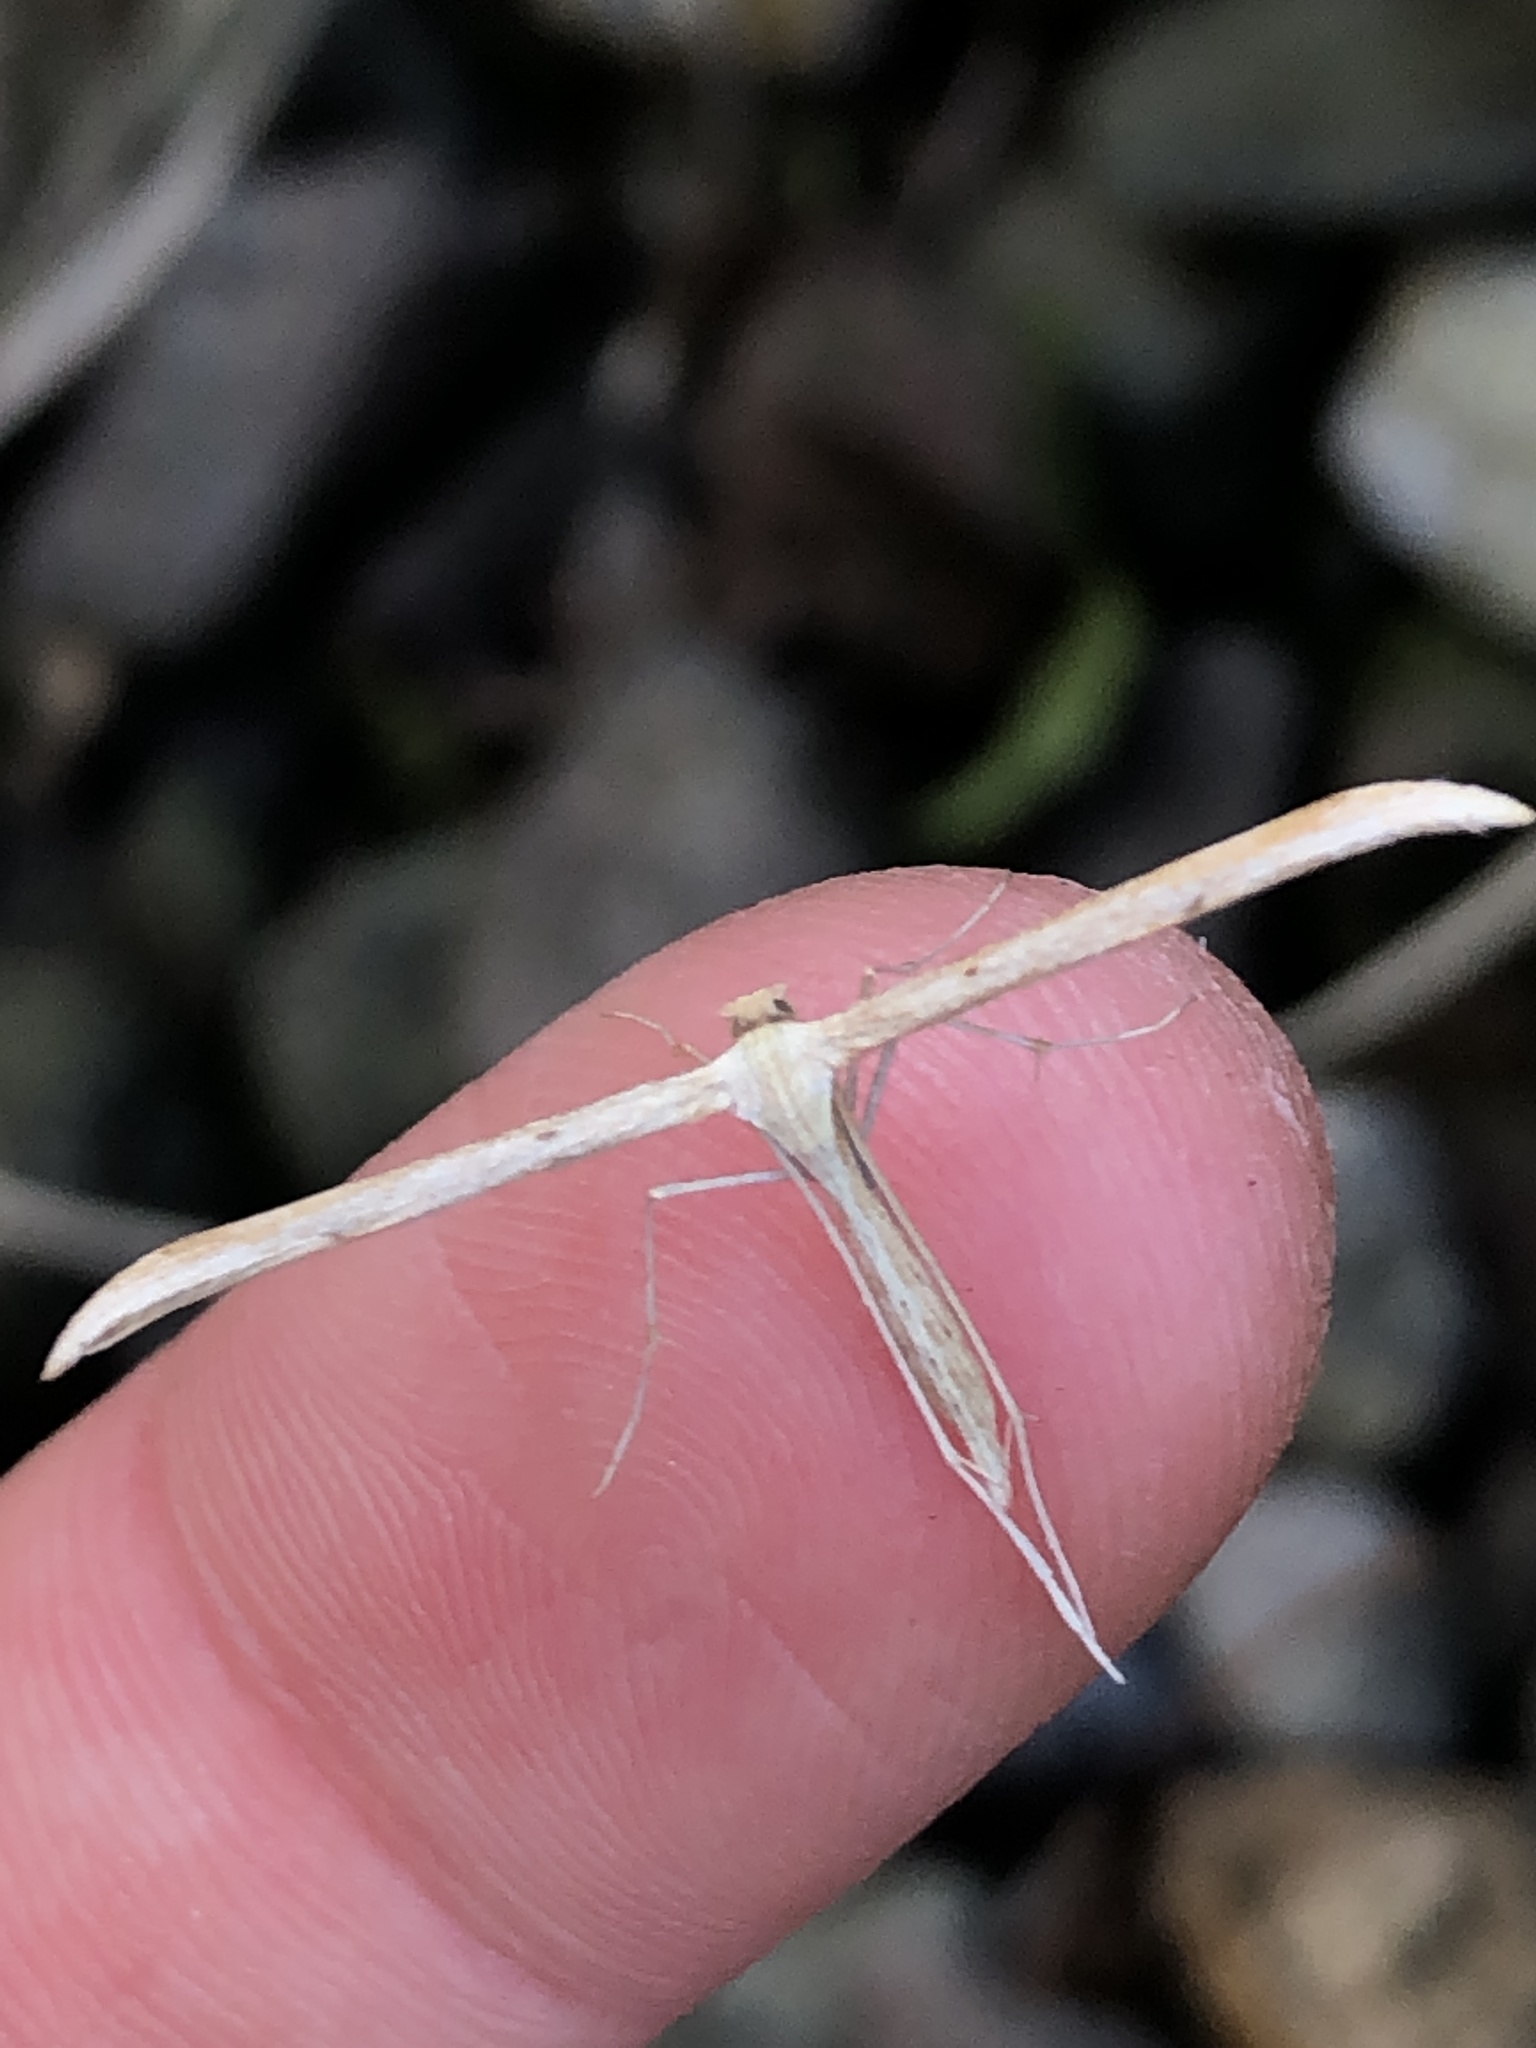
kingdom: Animalia
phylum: Arthropoda
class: Insecta
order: Lepidoptera
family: Pterophoridae
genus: Emmelina
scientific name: Emmelina monodactyla
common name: Common plume
